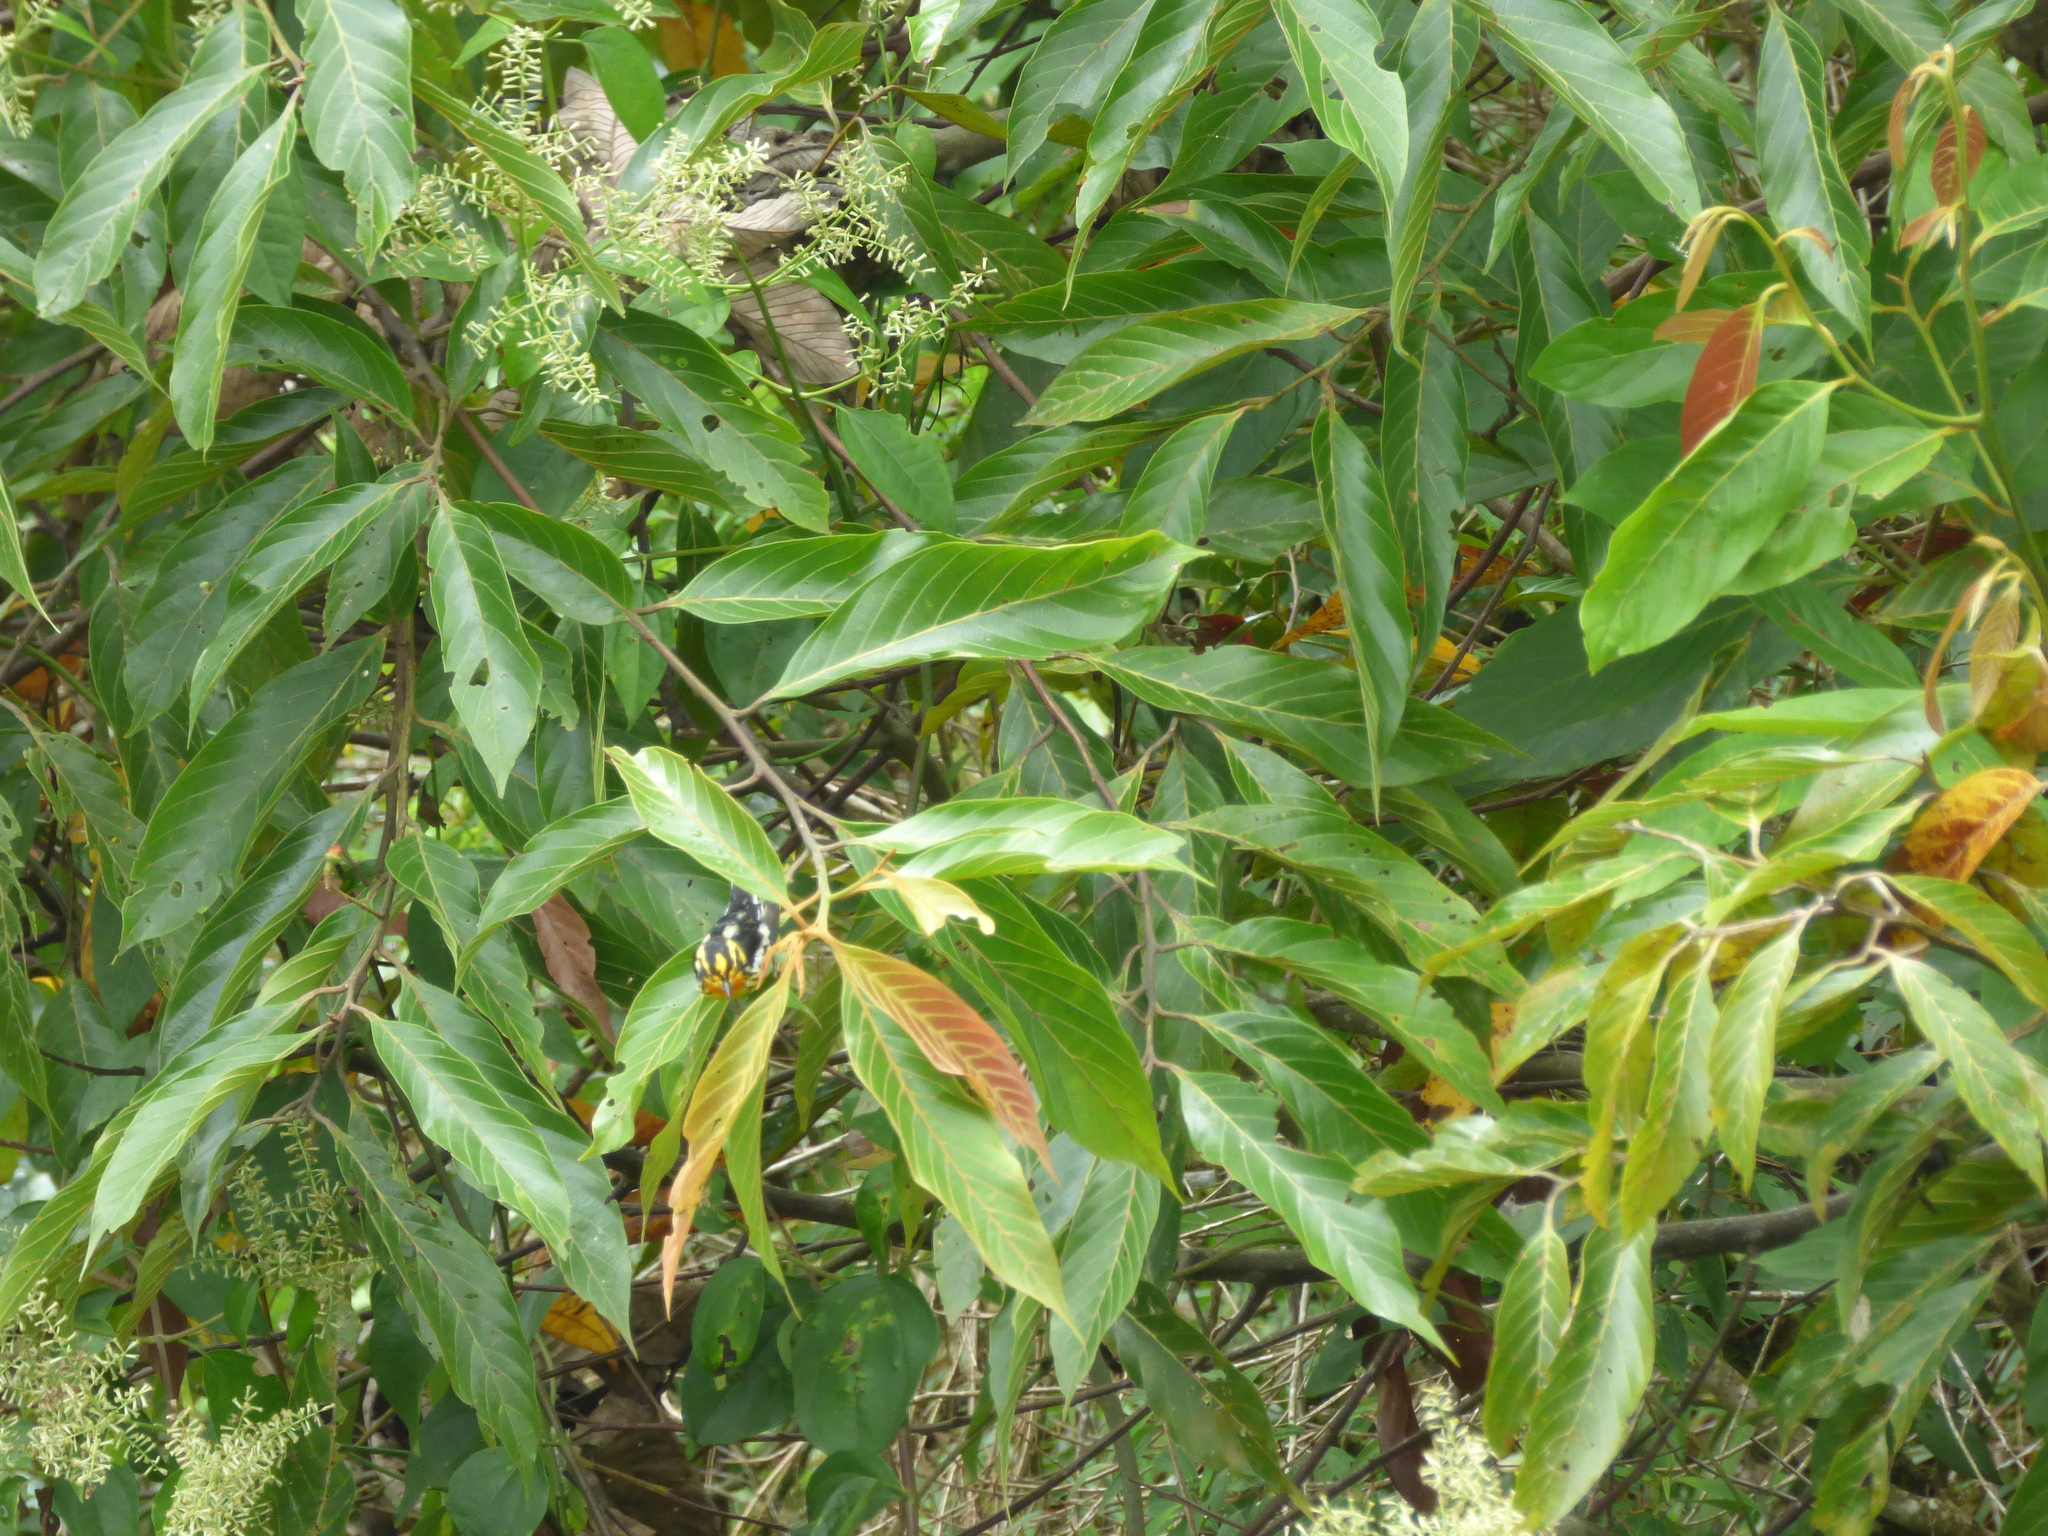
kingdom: Animalia
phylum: Chordata
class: Aves
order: Passeriformes
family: Parulidae
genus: Setophaga
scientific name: Setophaga fusca
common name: Blackburnian warbler
